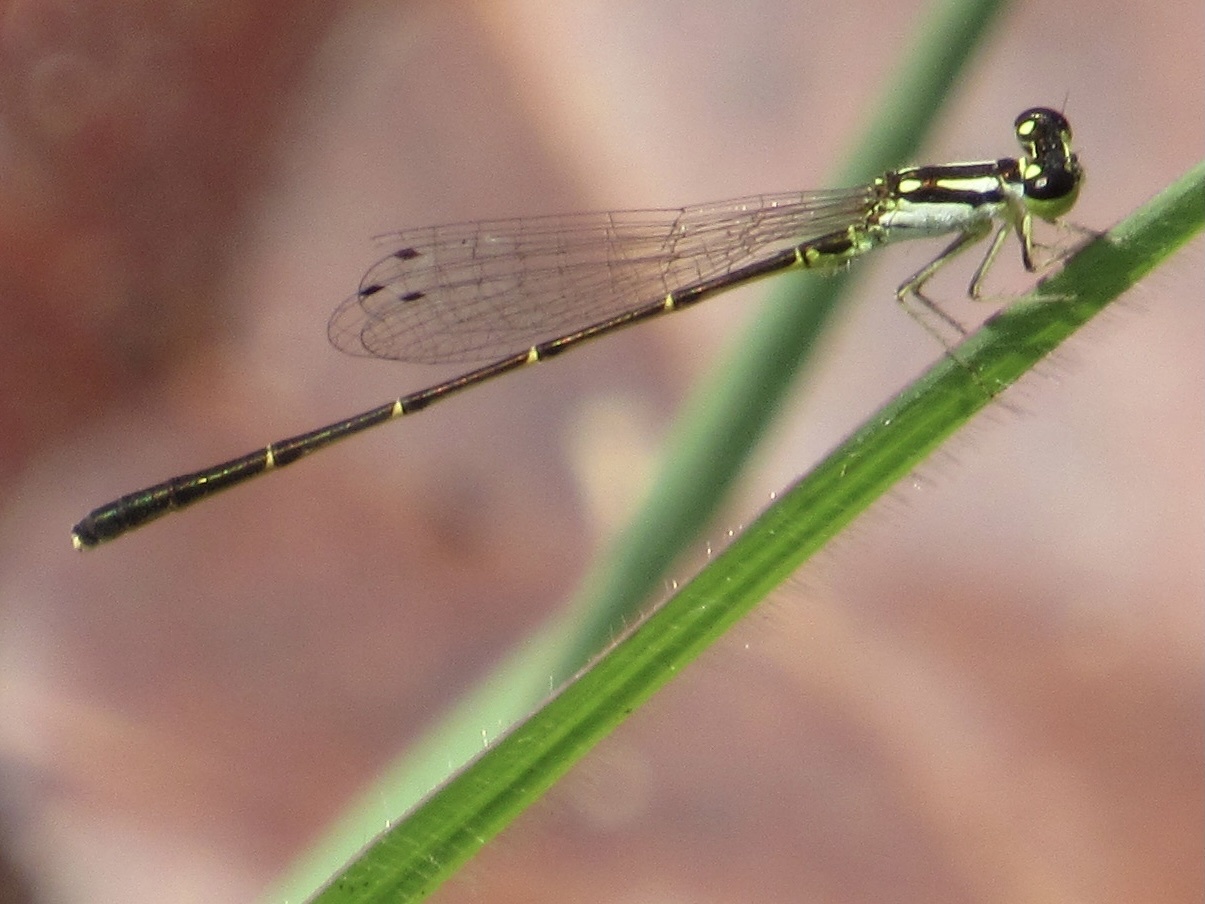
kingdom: Animalia
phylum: Arthropoda
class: Insecta
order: Odonata
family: Coenagrionidae
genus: Ischnura
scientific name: Ischnura posita
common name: Fragile forktail
